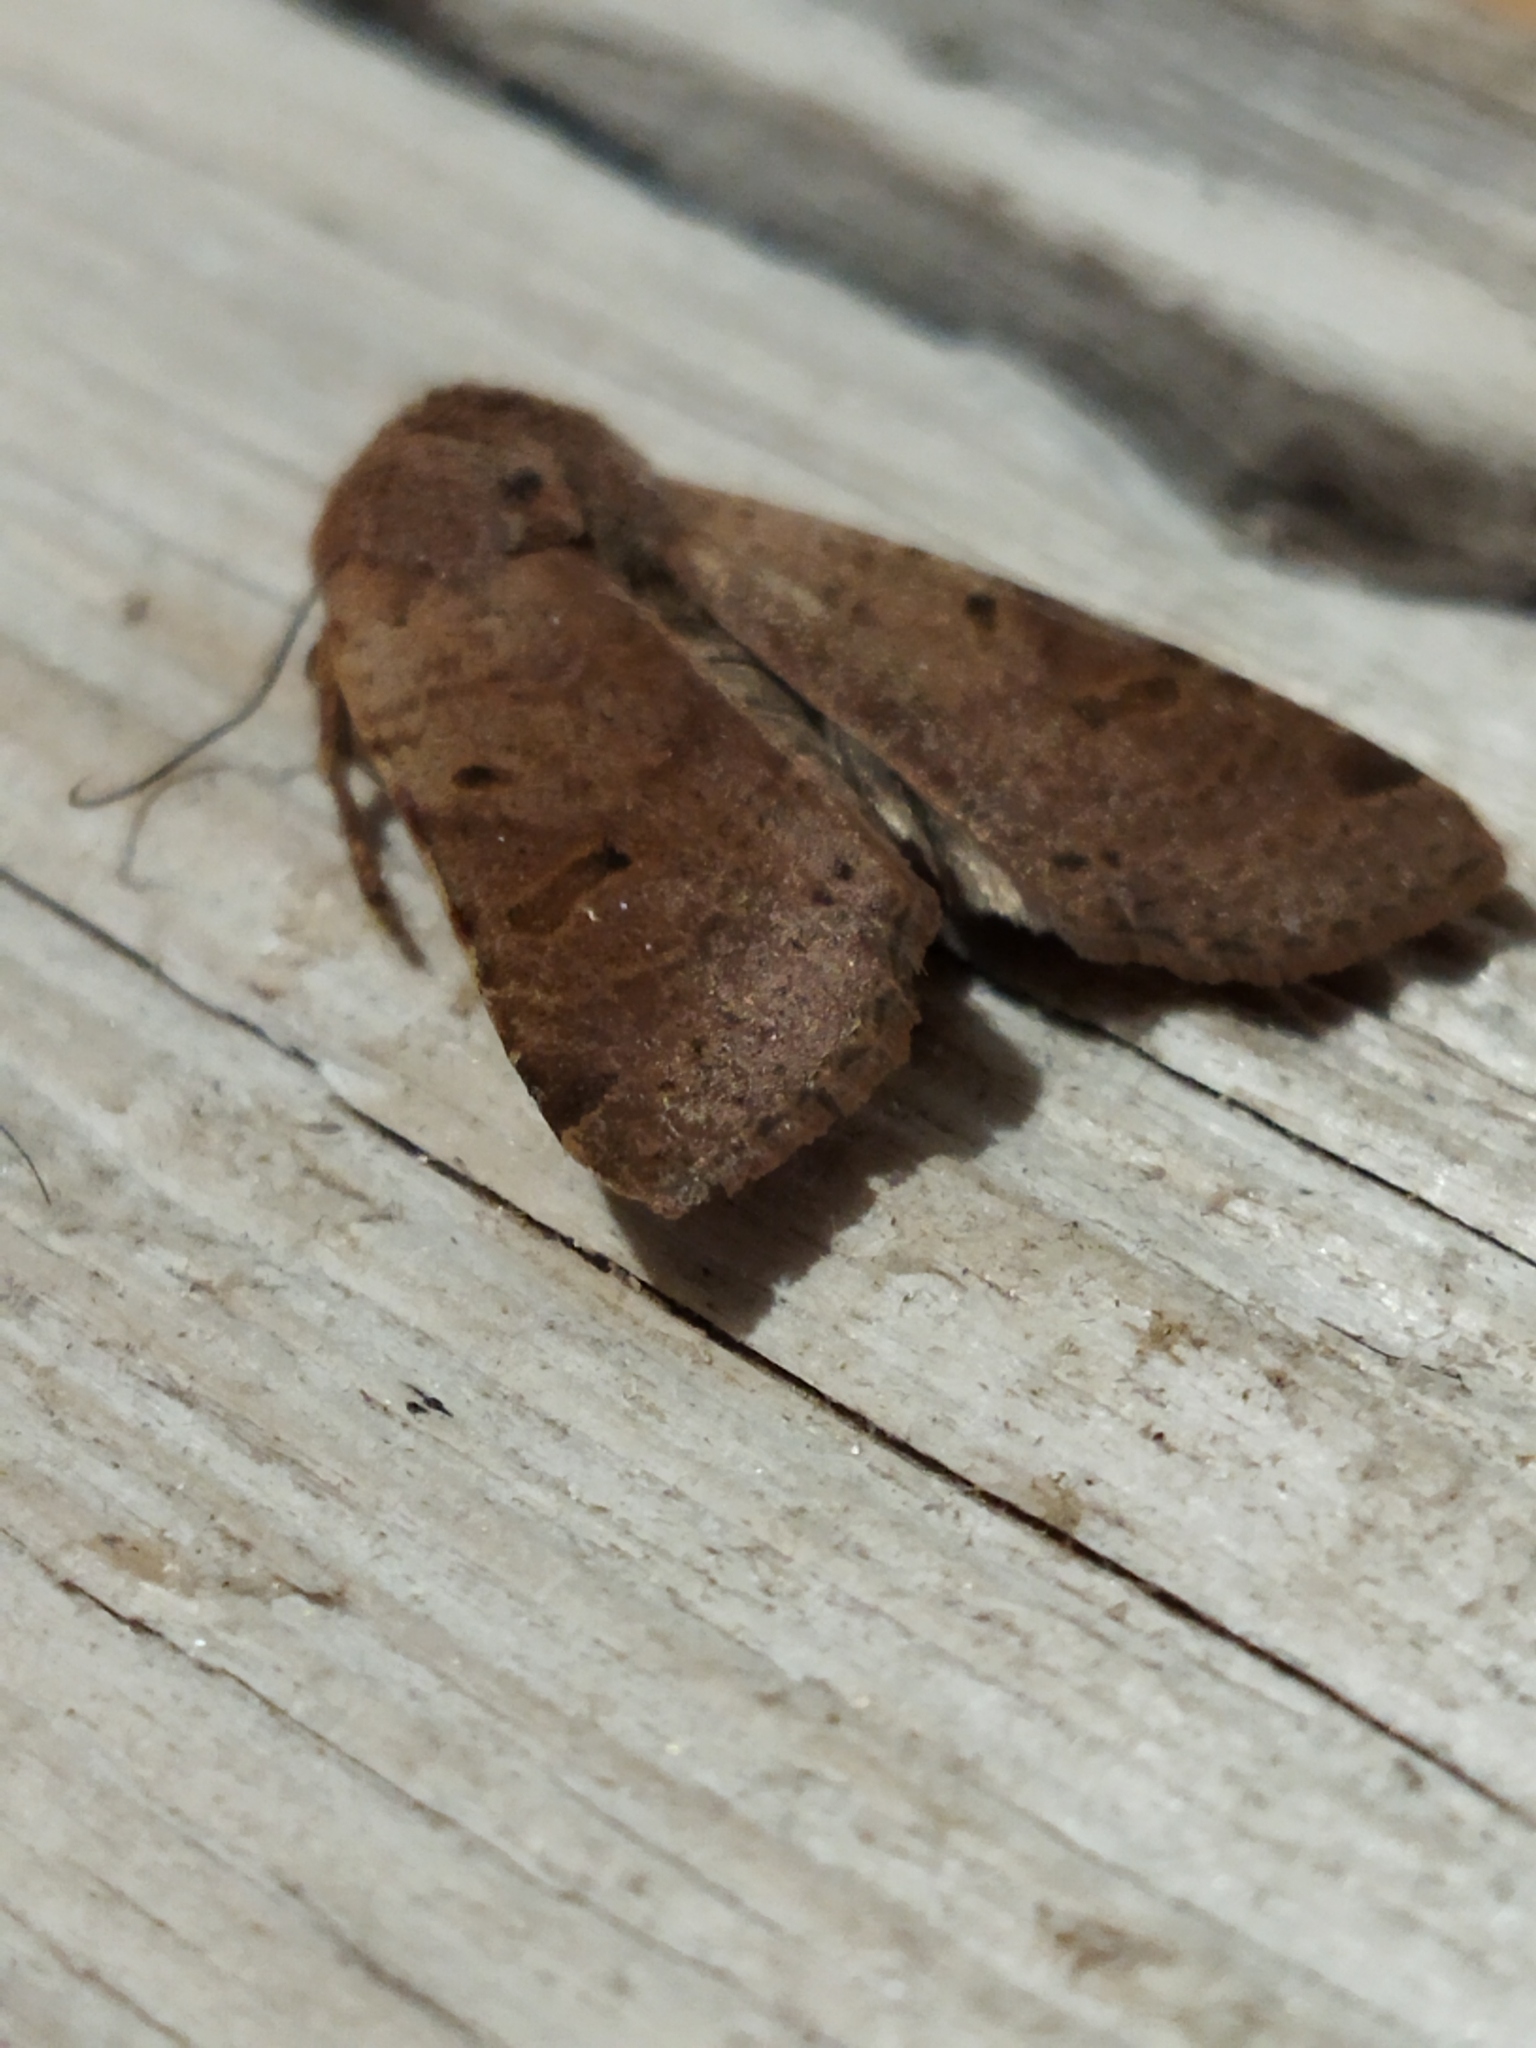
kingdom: Animalia
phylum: Arthropoda
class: Insecta
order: Lepidoptera
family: Noctuidae
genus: Agrochola
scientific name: Agrochola lychnidis
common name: Beaded chestnut
